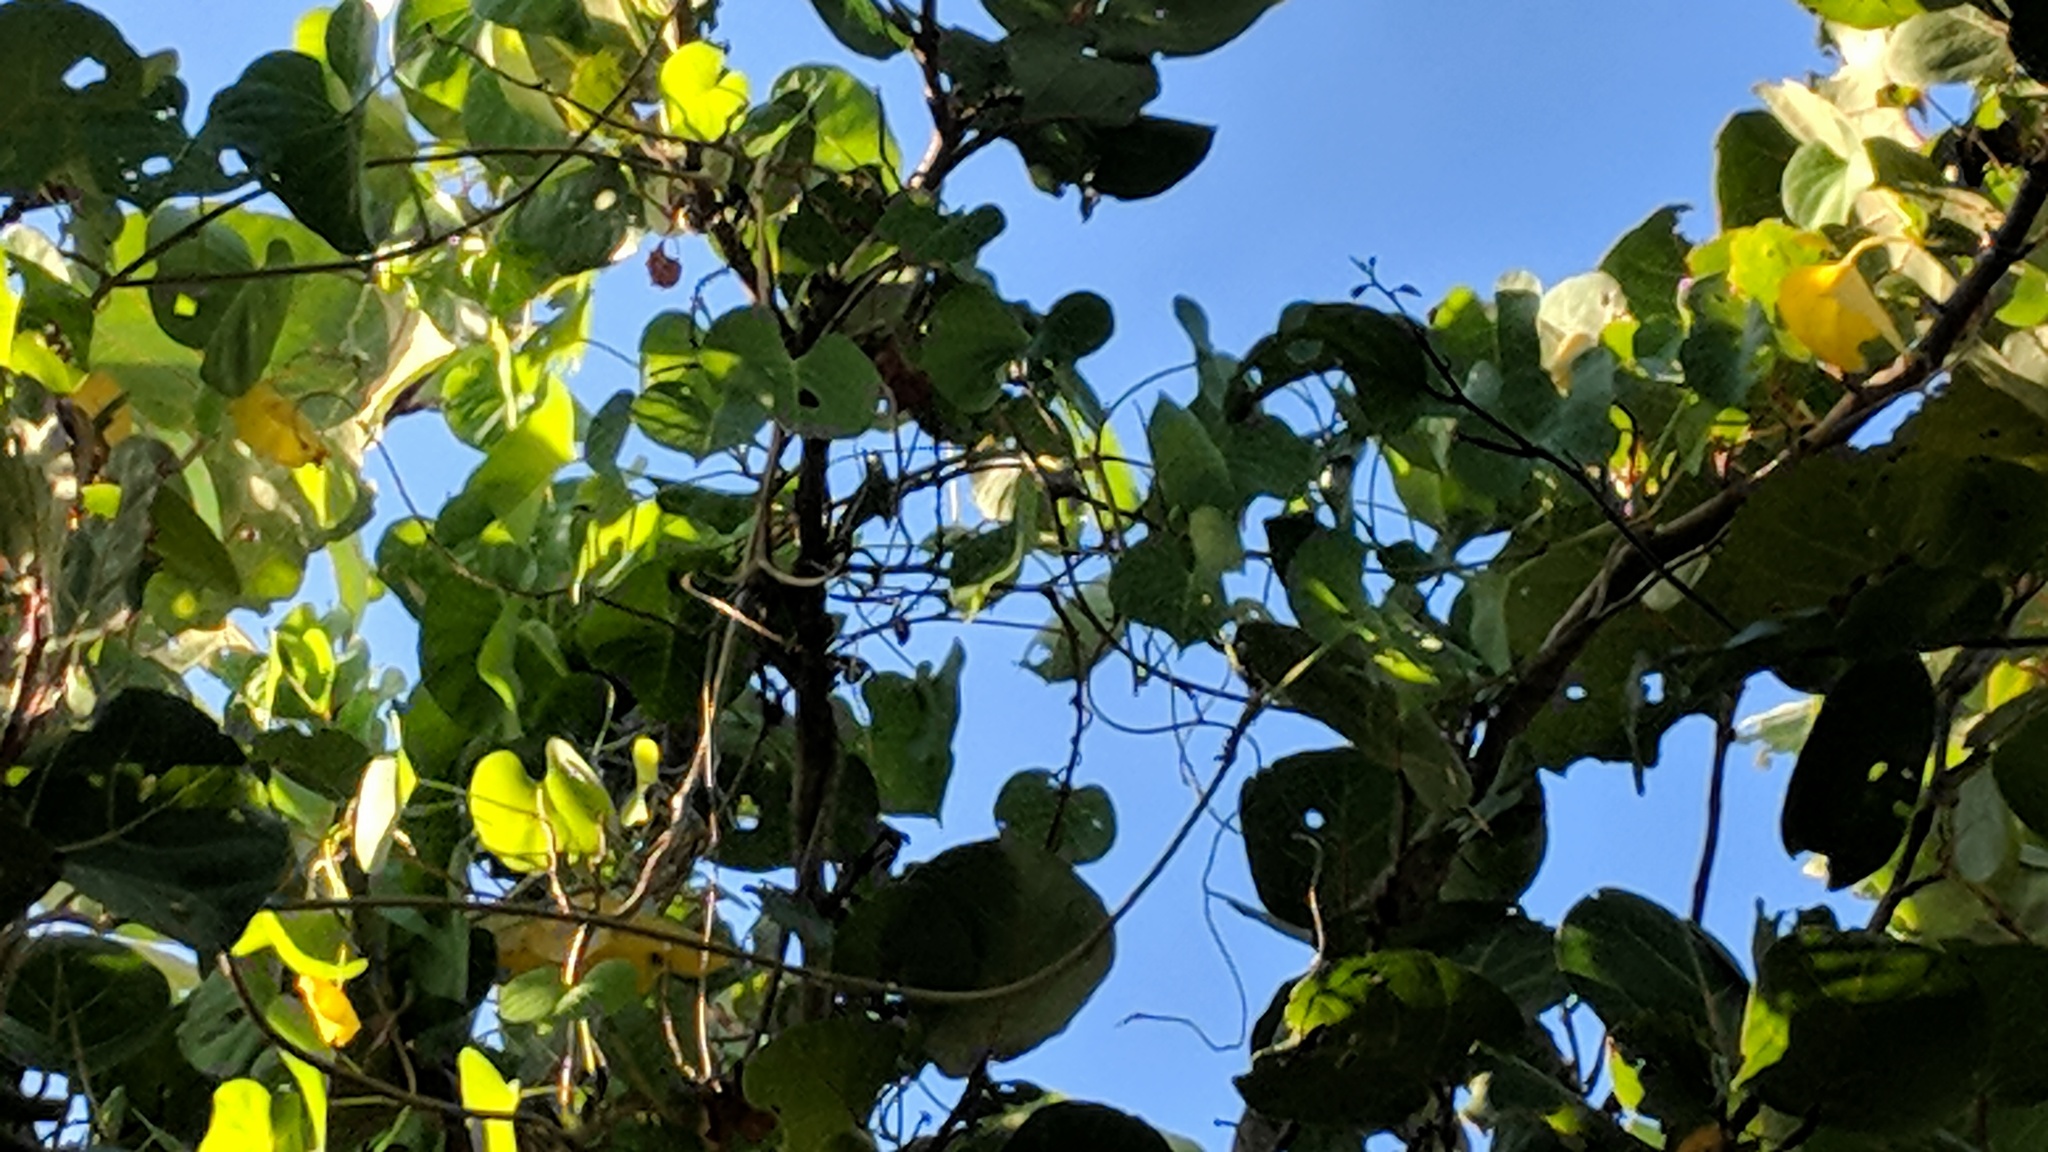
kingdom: Plantae
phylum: Tracheophyta
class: Magnoliopsida
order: Solanales
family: Convolvulaceae
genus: Ipomoea
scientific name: Ipomoea violacea
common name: Beach moonflower
